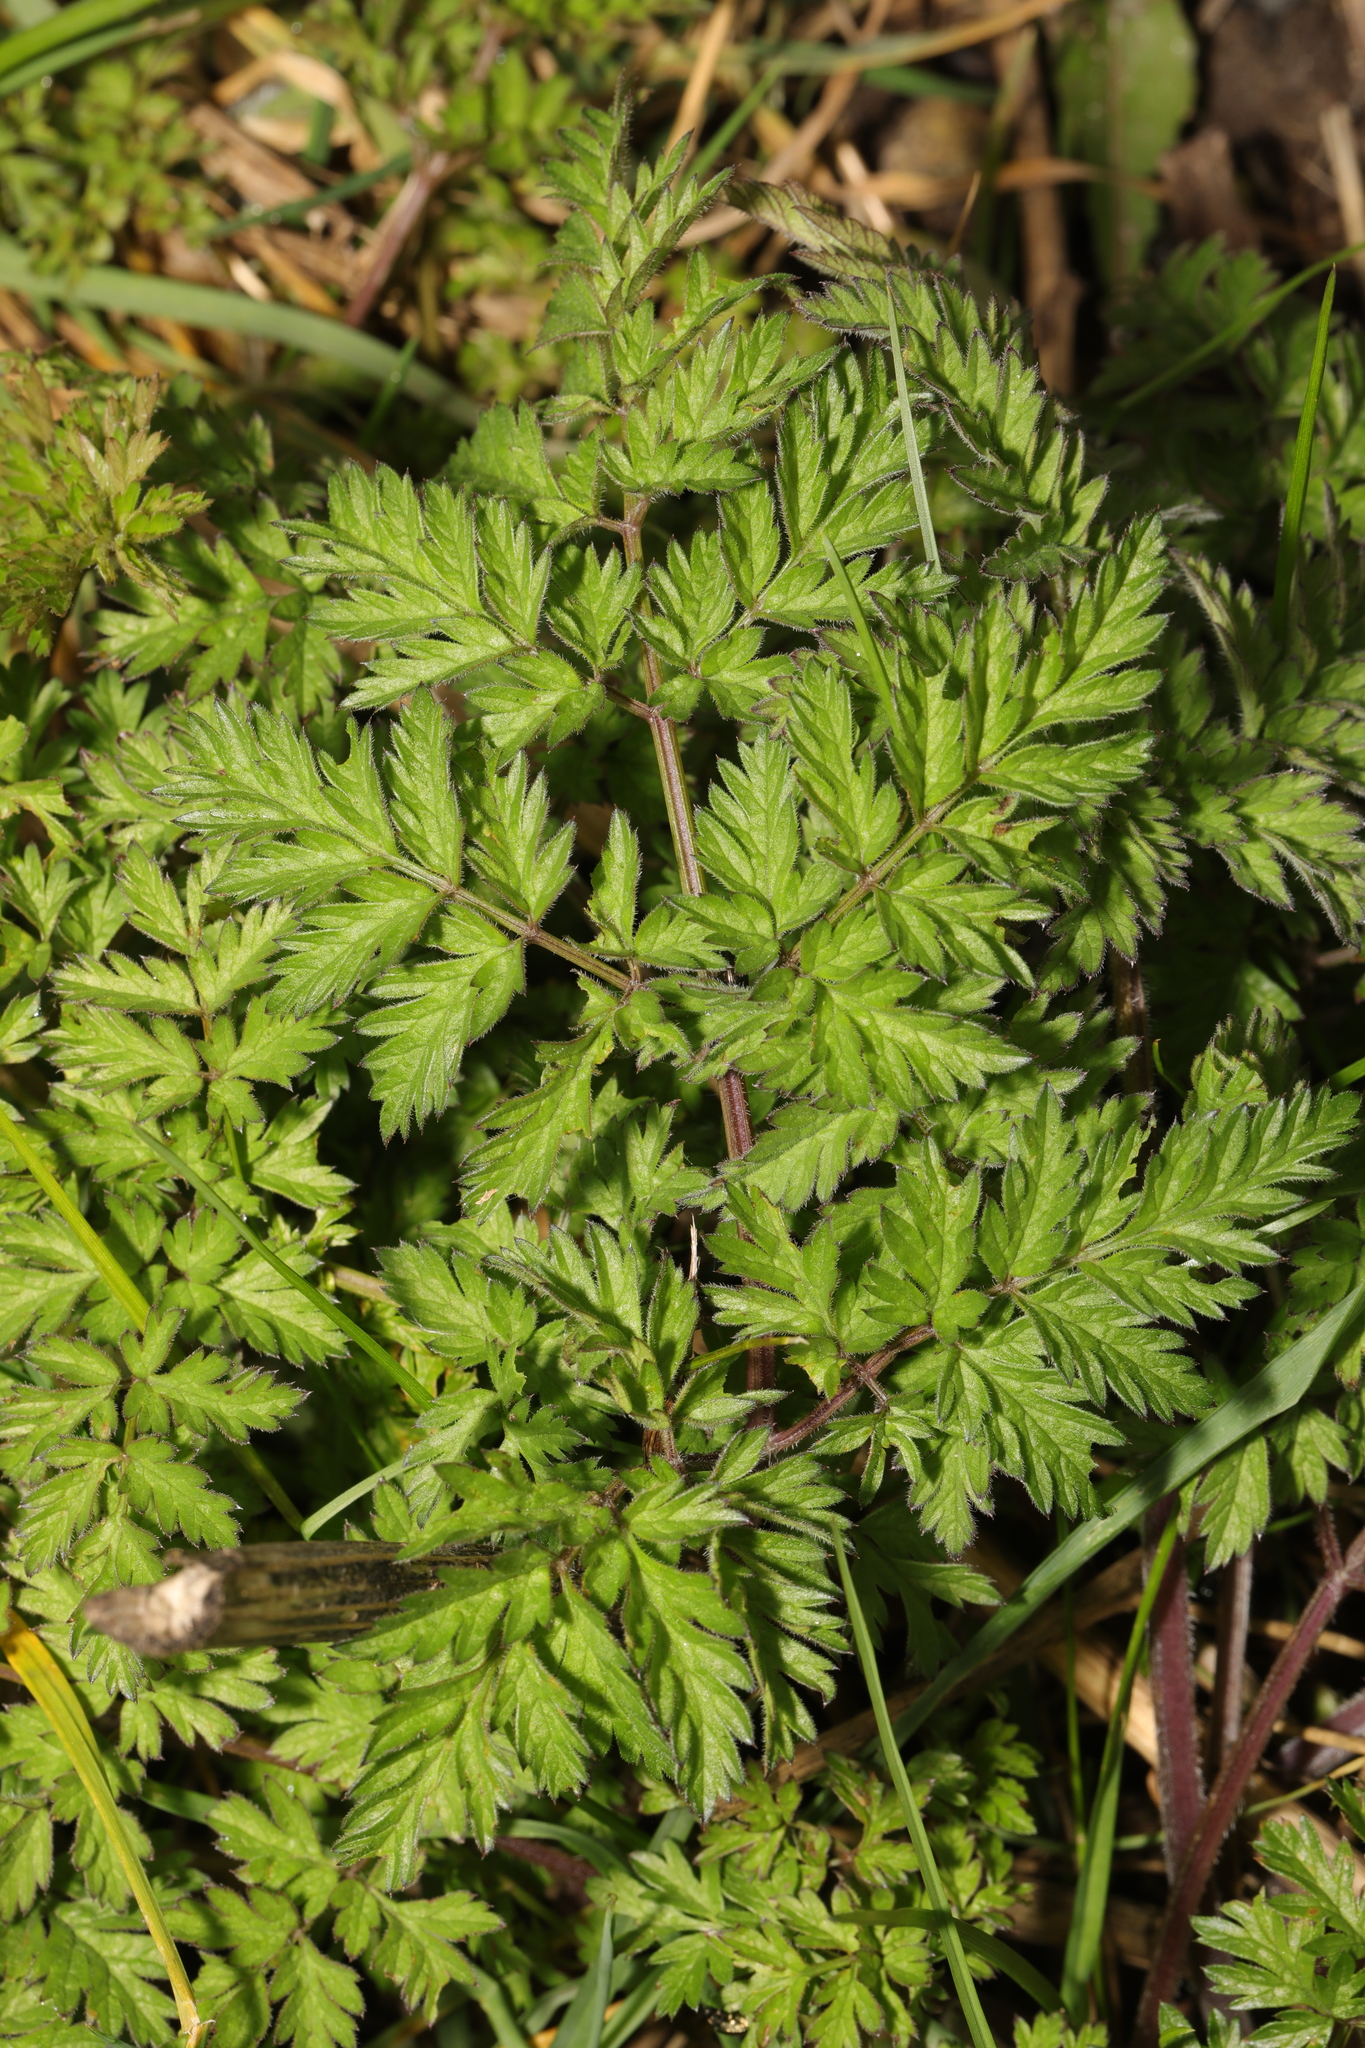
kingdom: Plantae
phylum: Tracheophyta
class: Magnoliopsida
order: Apiales
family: Apiaceae
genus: Anthriscus
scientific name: Anthriscus sylvestris
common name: Cow parsley
